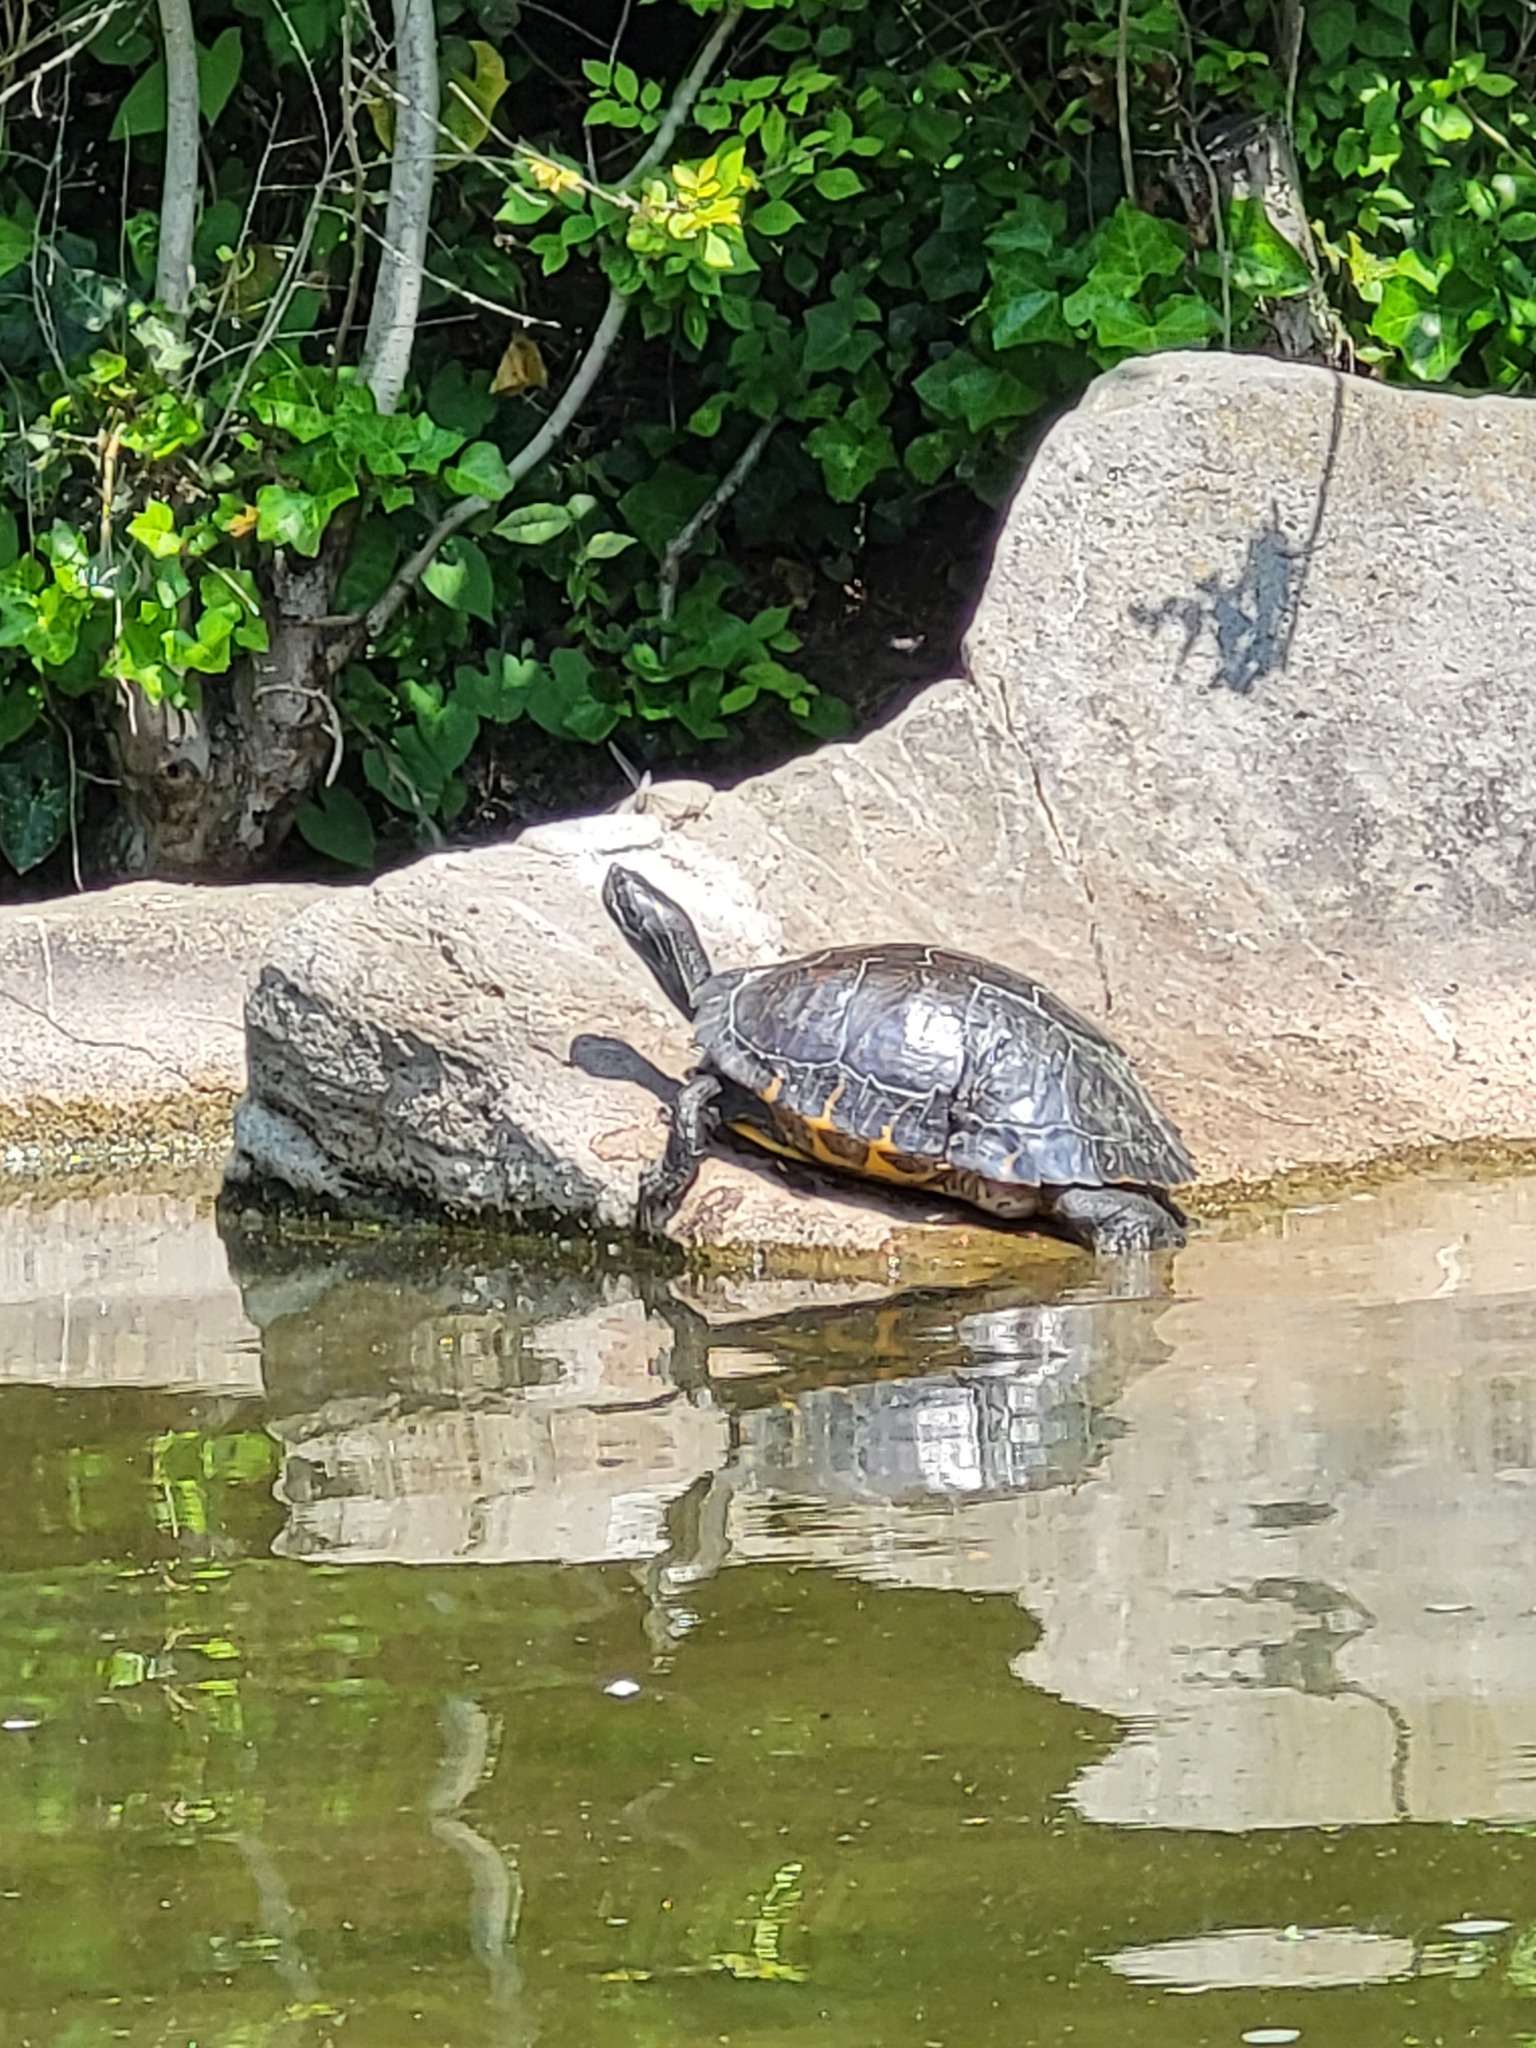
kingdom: Animalia
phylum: Chordata
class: Testudines
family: Emydidae
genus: Trachemys
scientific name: Trachemys scripta
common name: Slider
